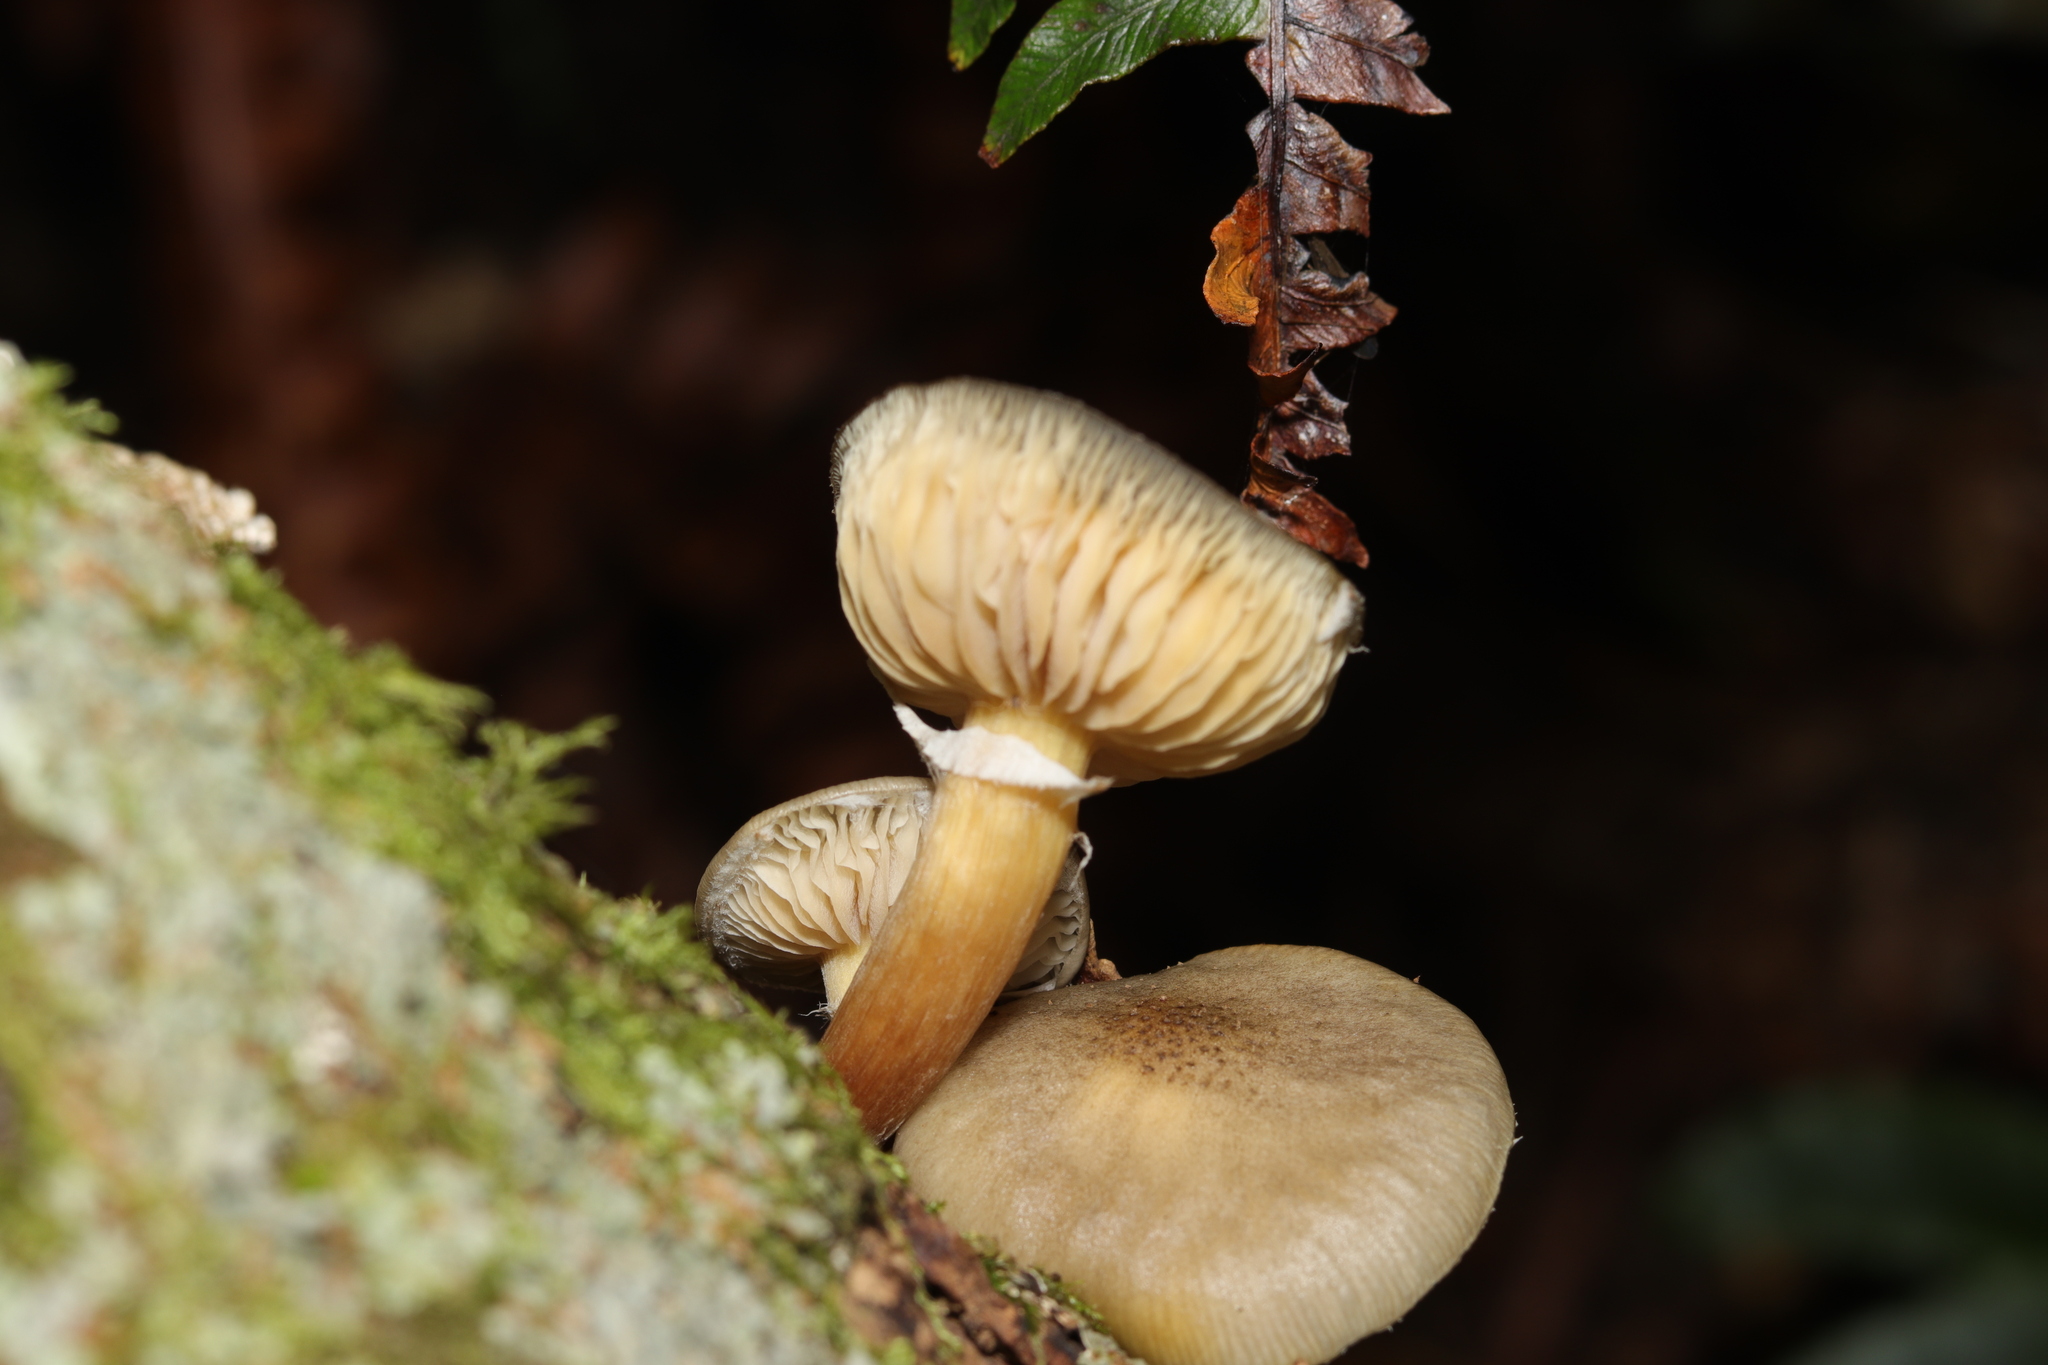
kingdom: Fungi
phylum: Basidiomycota
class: Agaricomycetes
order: Agaricales
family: Physalacriaceae
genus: Armillaria
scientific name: Armillaria novae-zelandiae
